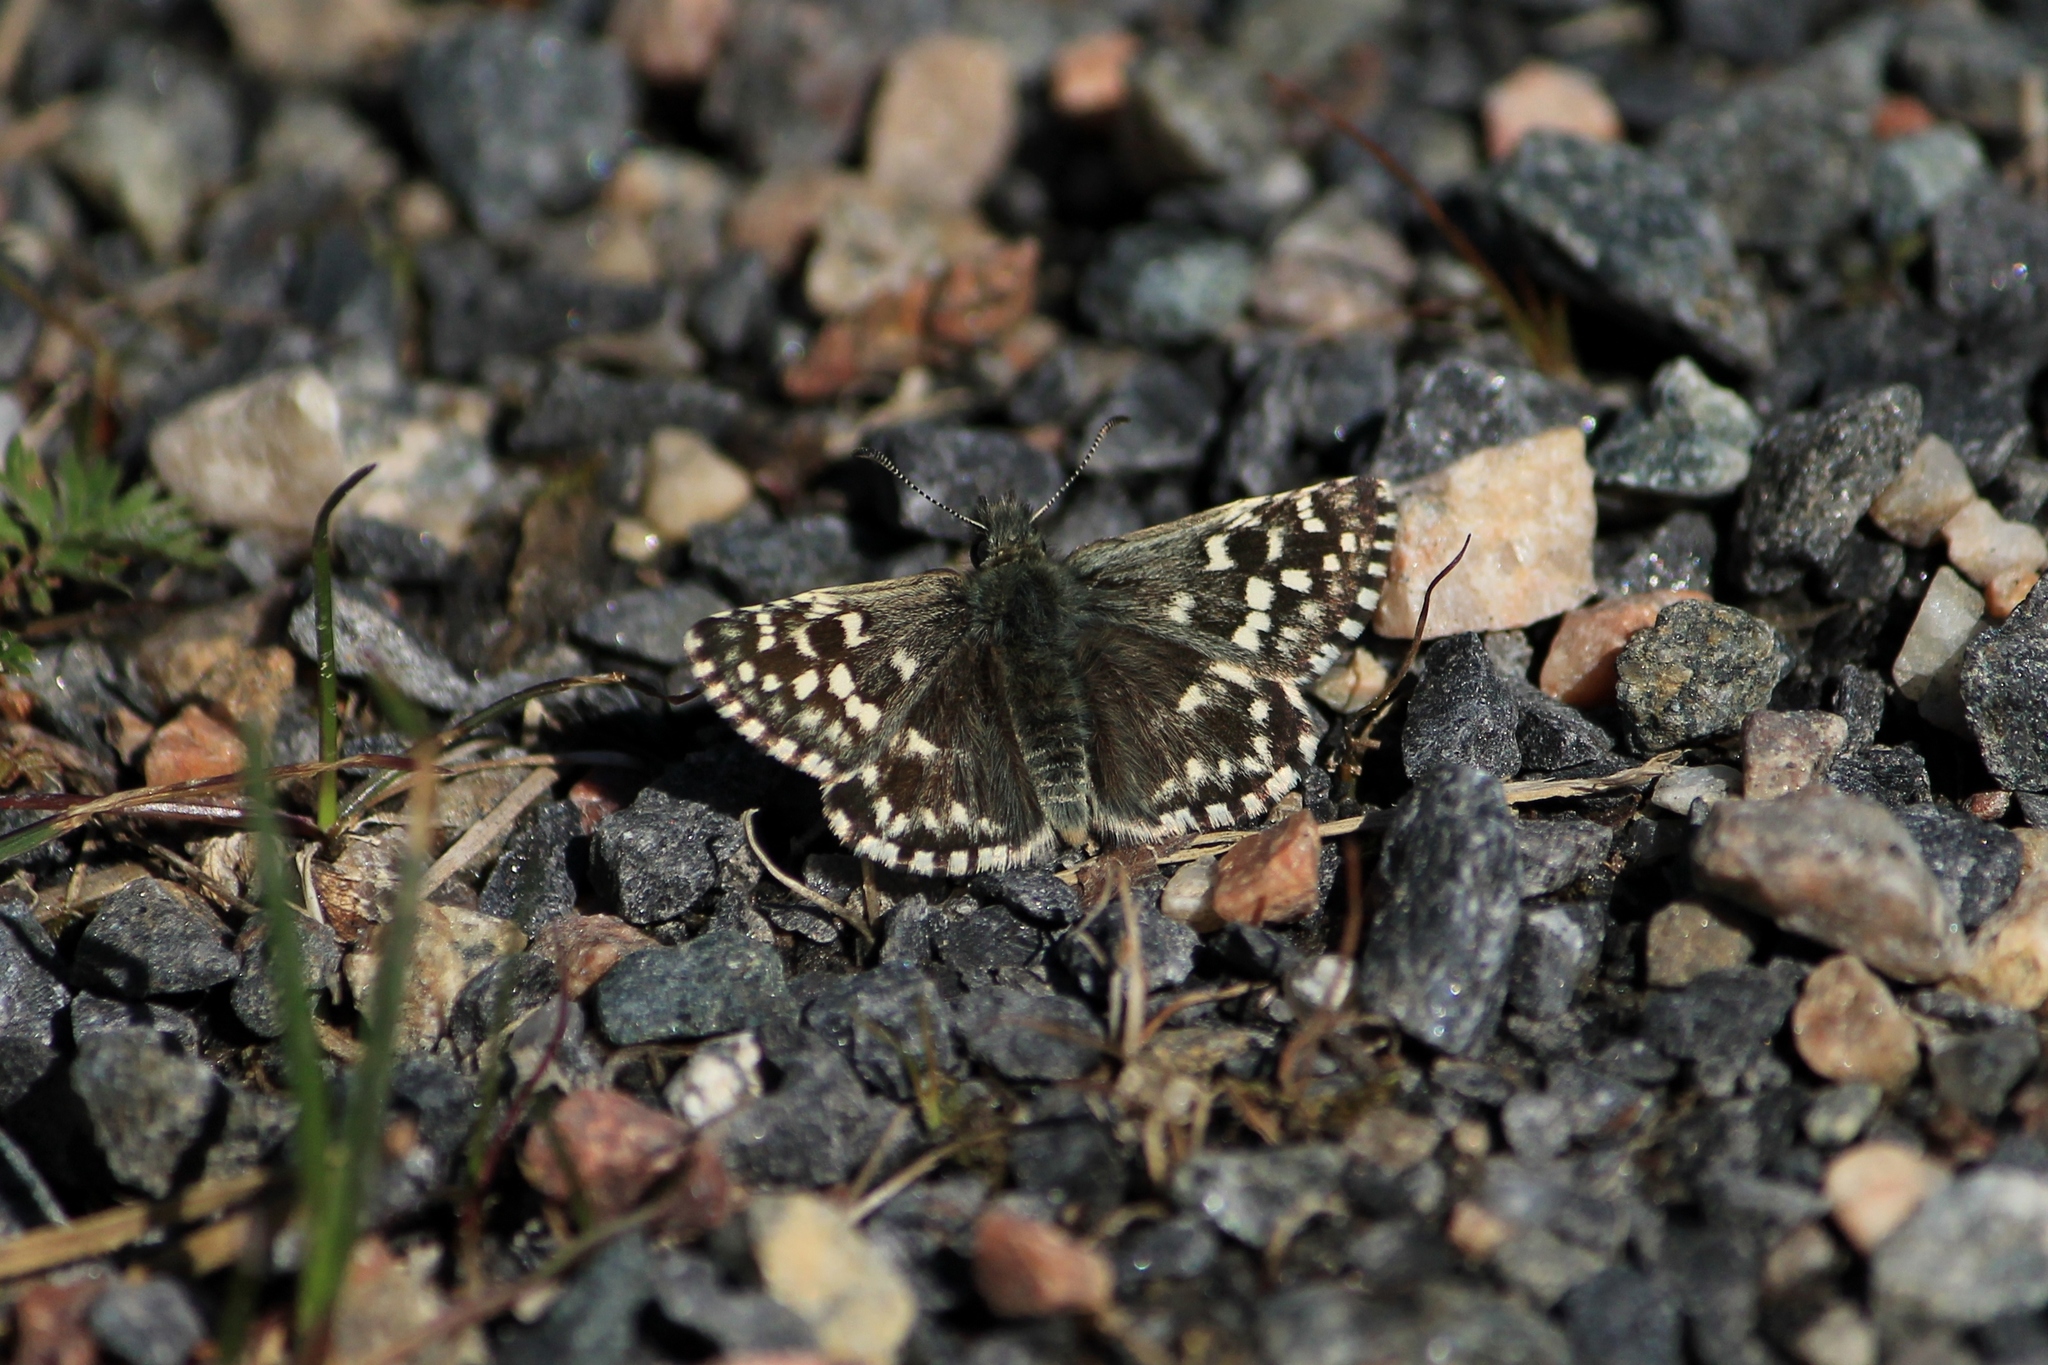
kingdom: Animalia
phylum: Arthropoda
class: Insecta
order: Lepidoptera
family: Hesperiidae
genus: Pyrgus
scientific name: Pyrgus malvae
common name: Grizzled skipper
